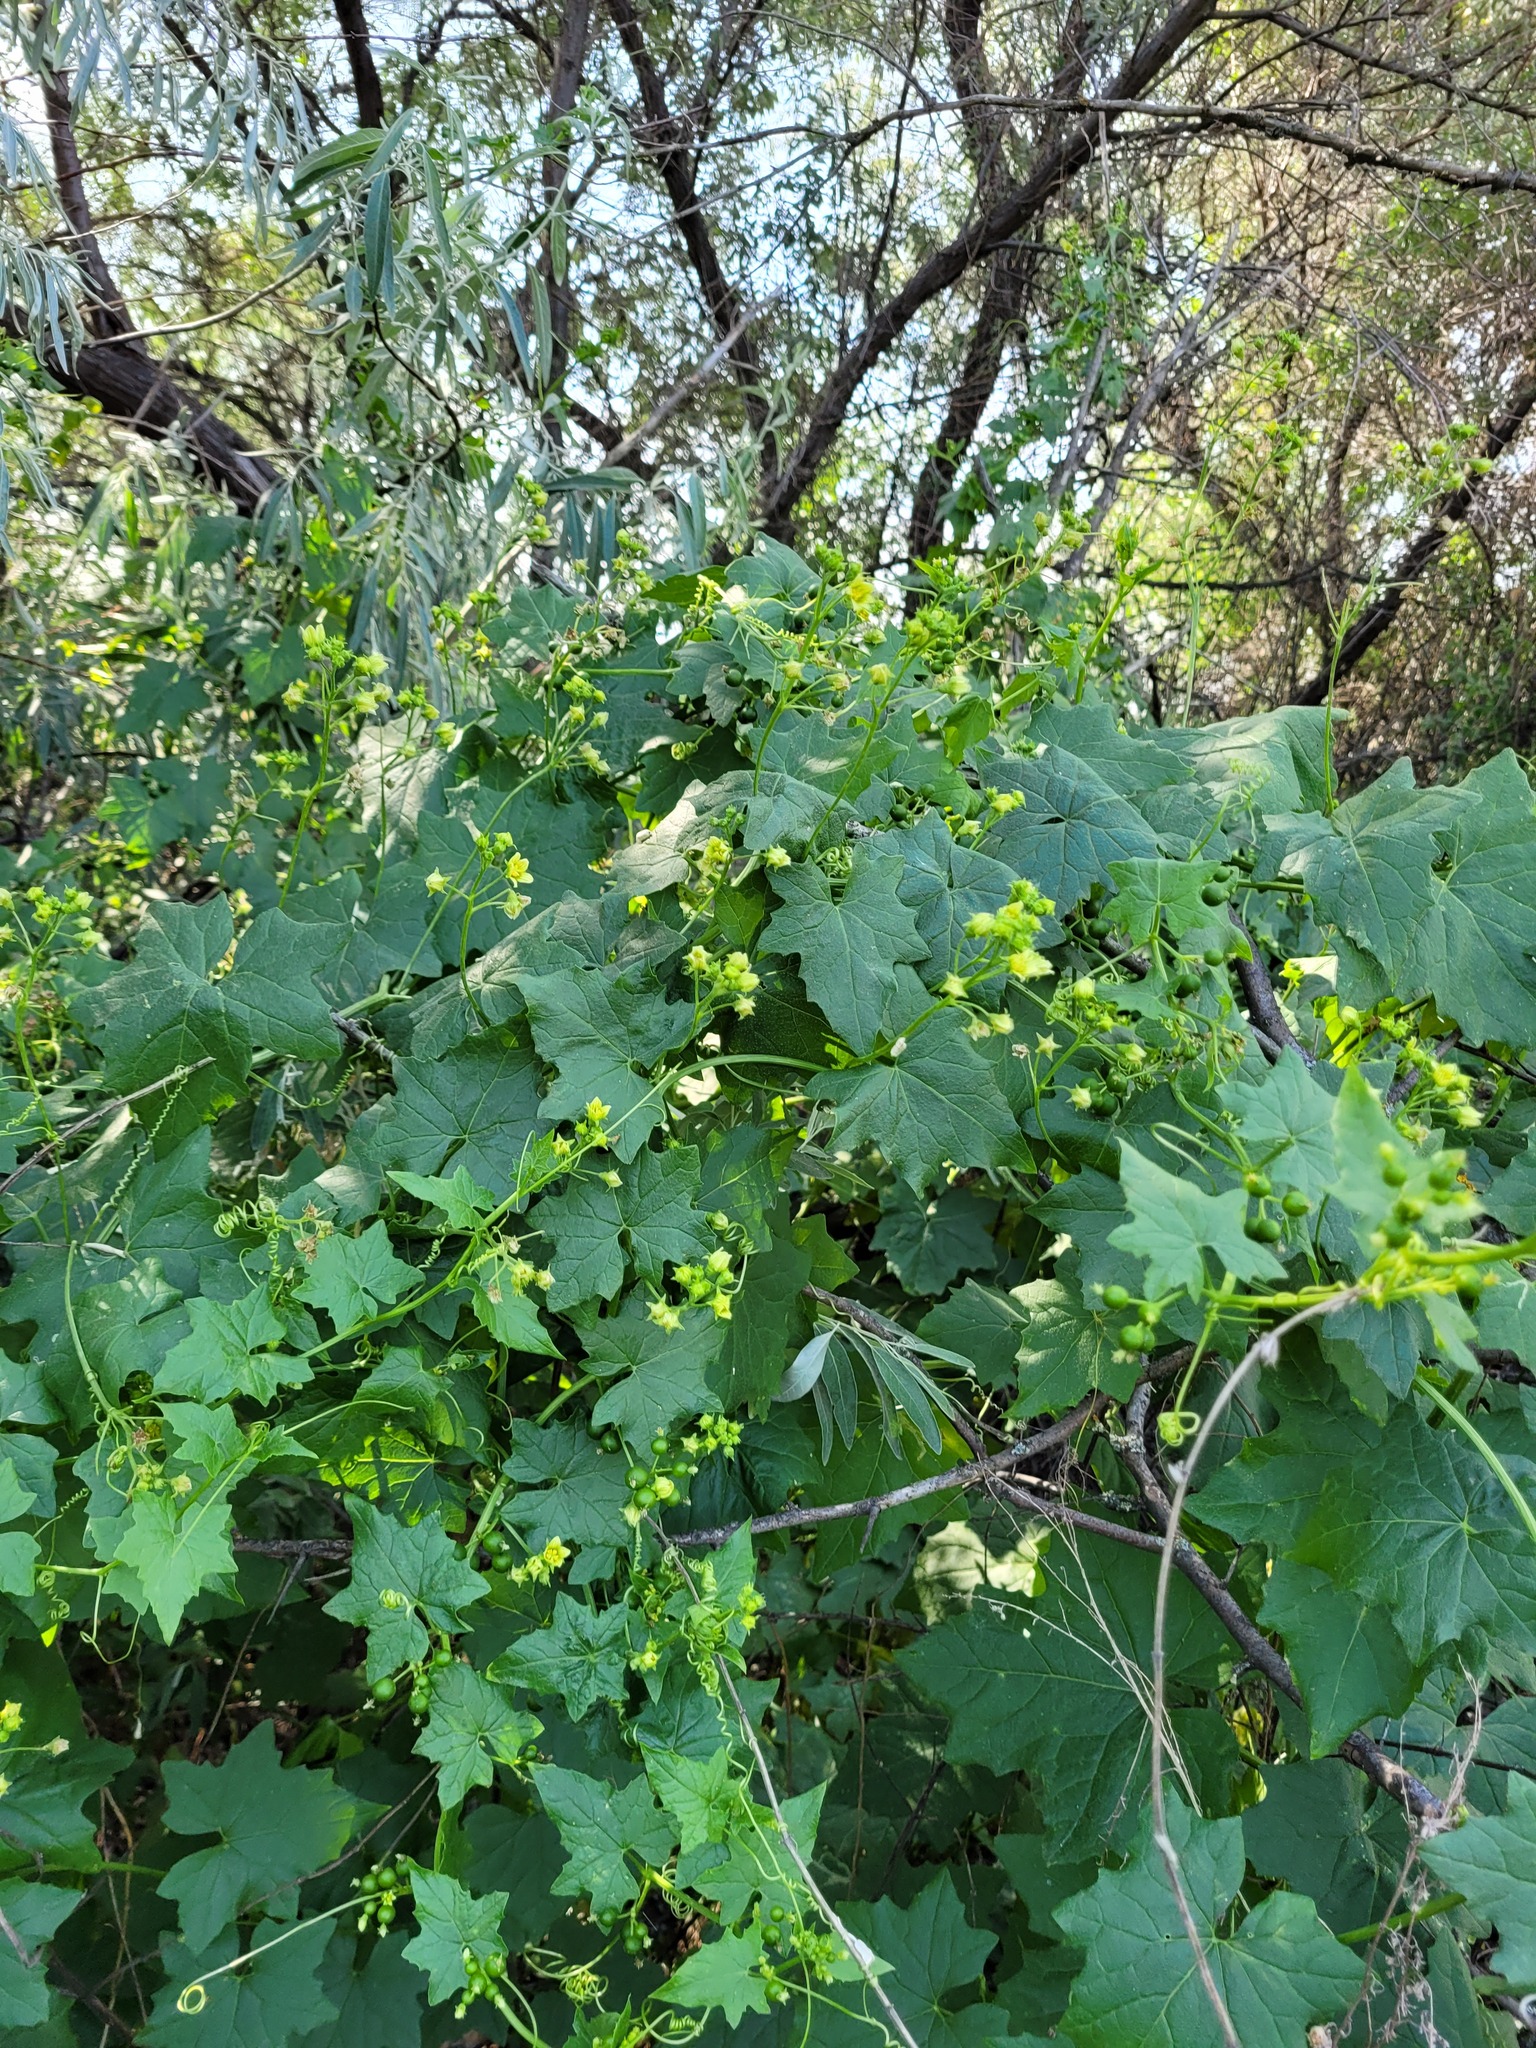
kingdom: Plantae
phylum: Tracheophyta
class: Magnoliopsida
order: Cucurbitales
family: Cucurbitaceae
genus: Bryonia
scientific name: Bryonia alba
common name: White bryony
